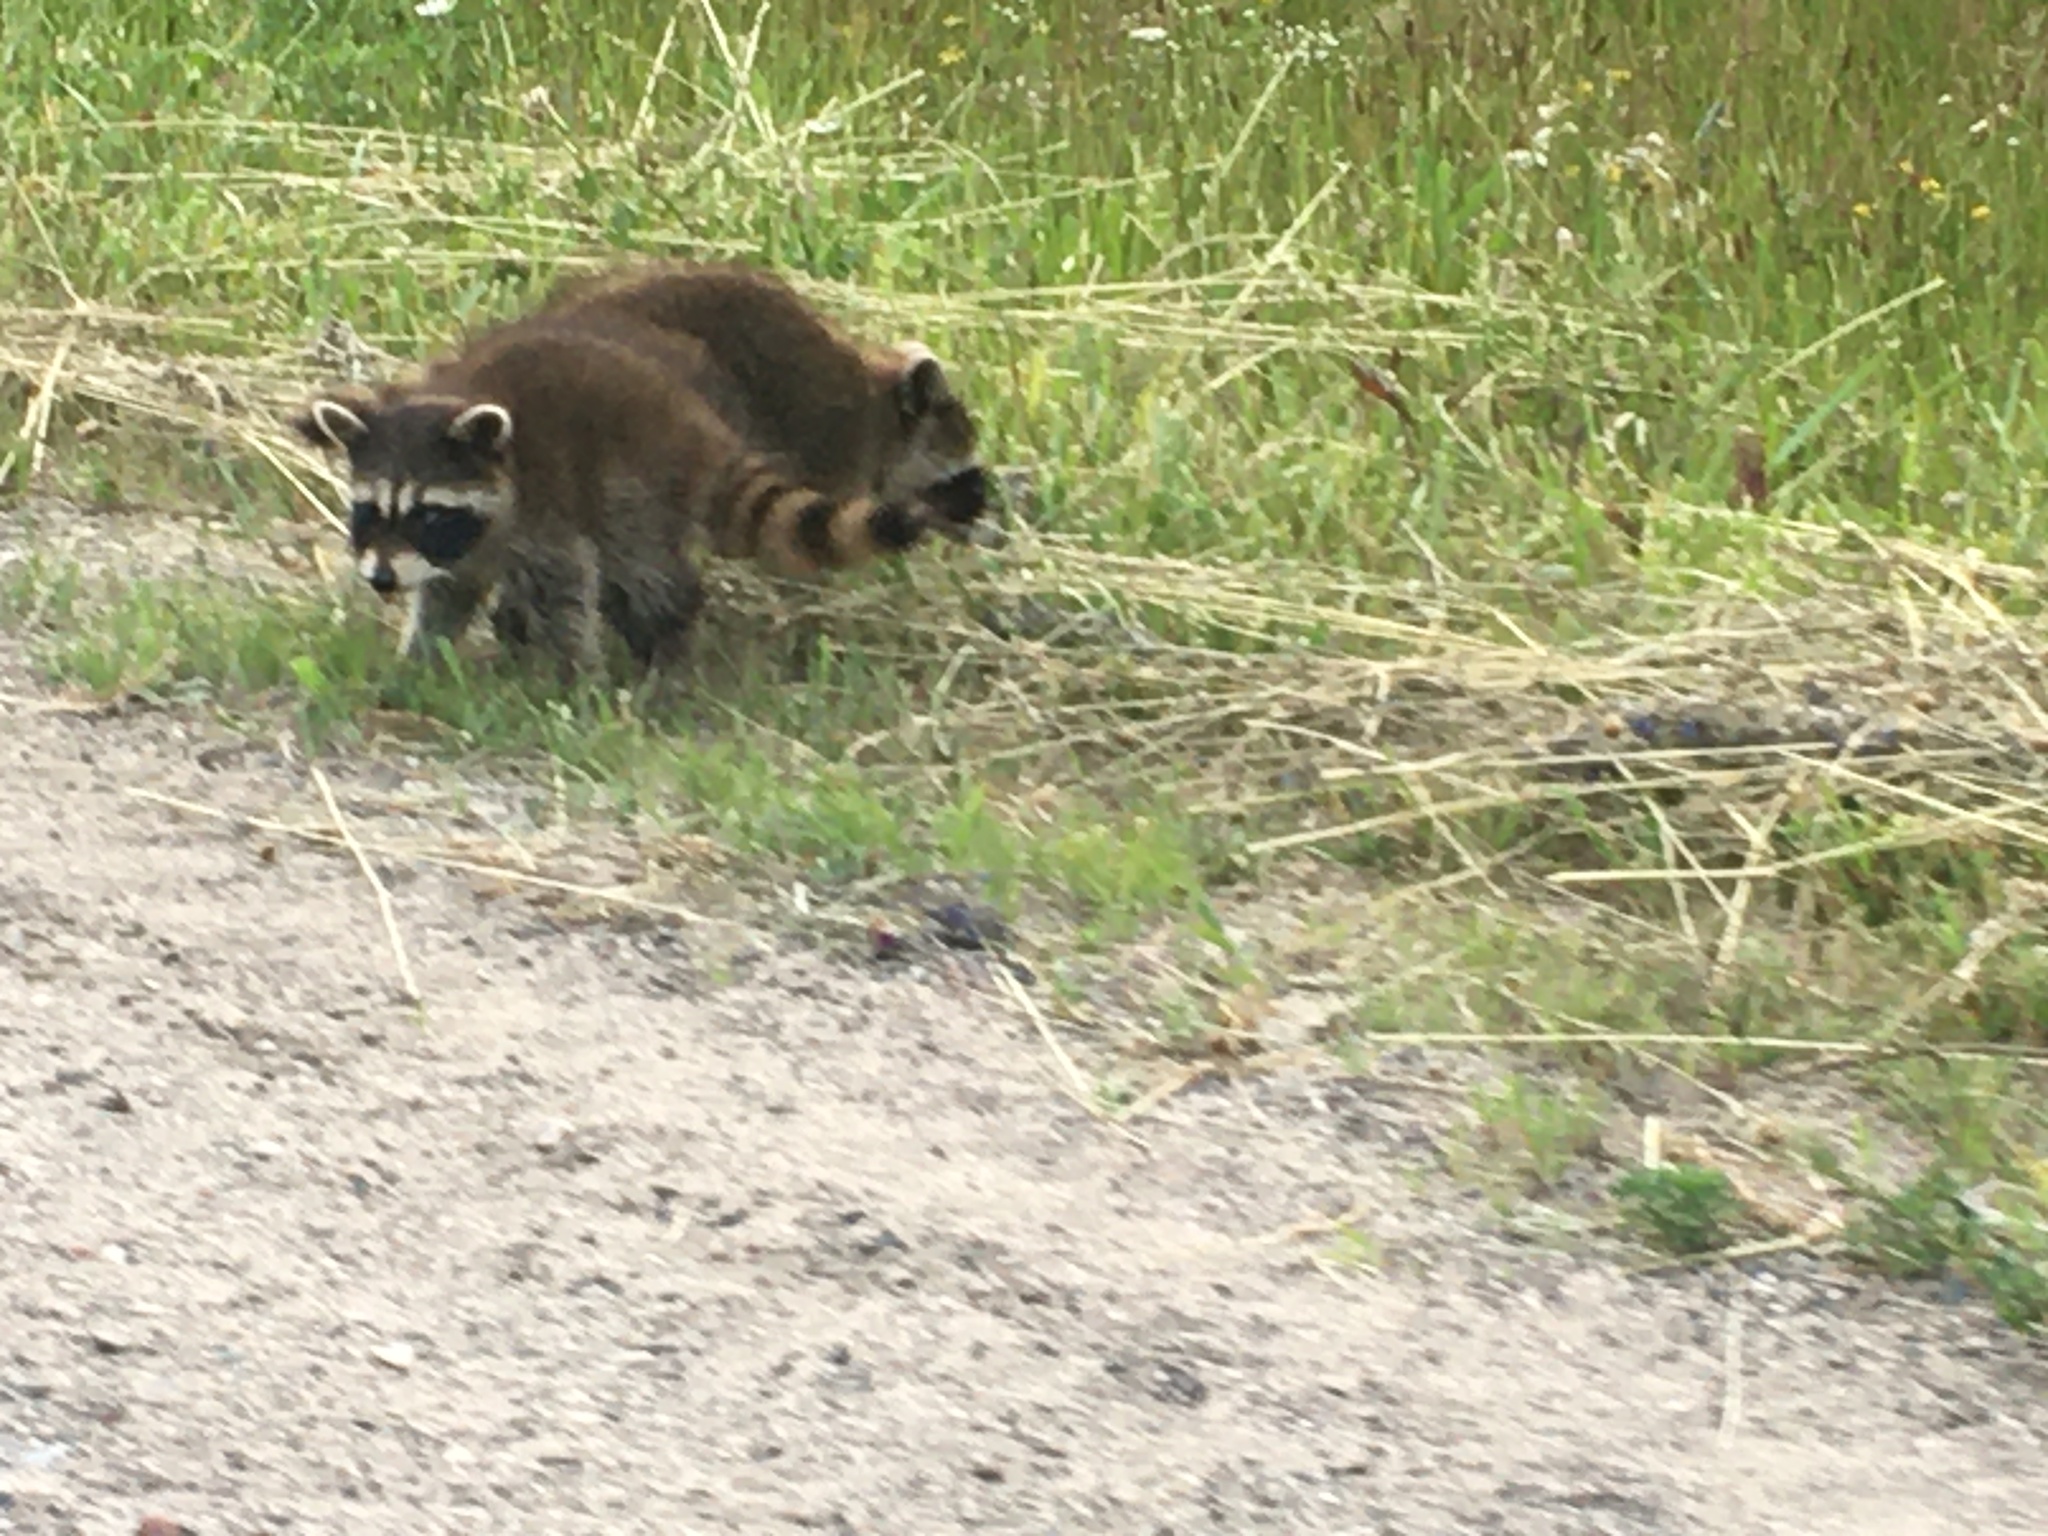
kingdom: Animalia
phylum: Chordata
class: Mammalia
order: Carnivora
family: Procyonidae
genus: Procyon
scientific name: Procyon lotor
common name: Raccoon
